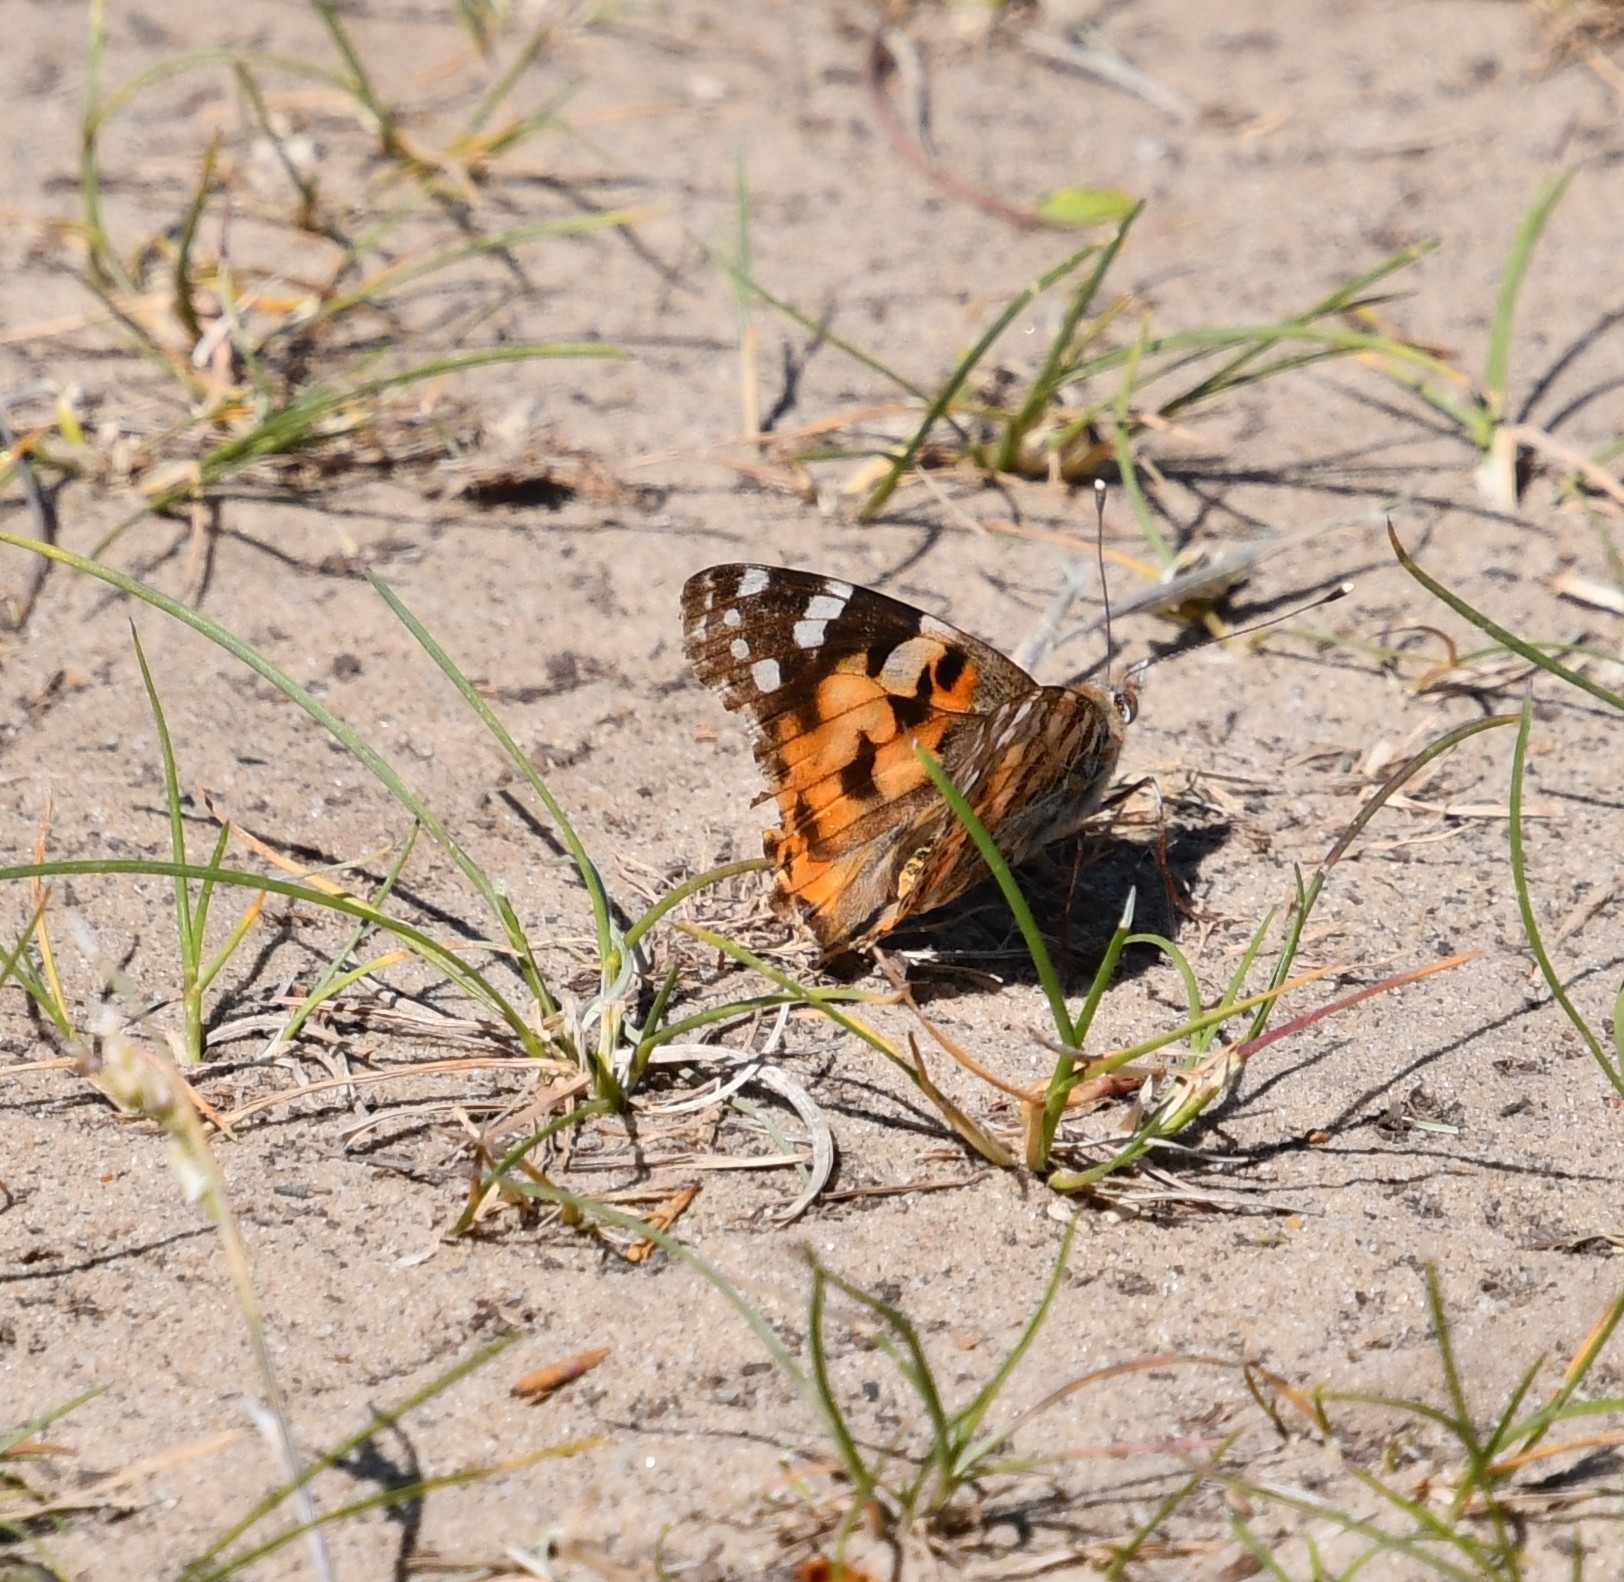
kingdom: Animalia
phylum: Arthropoda
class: Insecta
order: Lepidoptera
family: Nymphalidae
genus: Vanessa
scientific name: Vanessa cardui
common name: Painted lady
